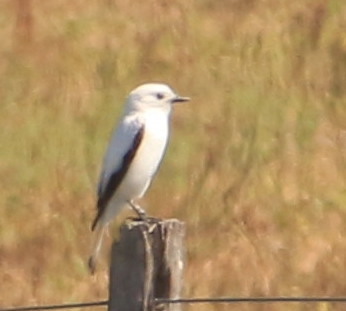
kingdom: Animalia
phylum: Chordata
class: Aves
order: Passeriformes
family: Tyrannidae
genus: Xolmis
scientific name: Xolmis irupero
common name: White monjita
